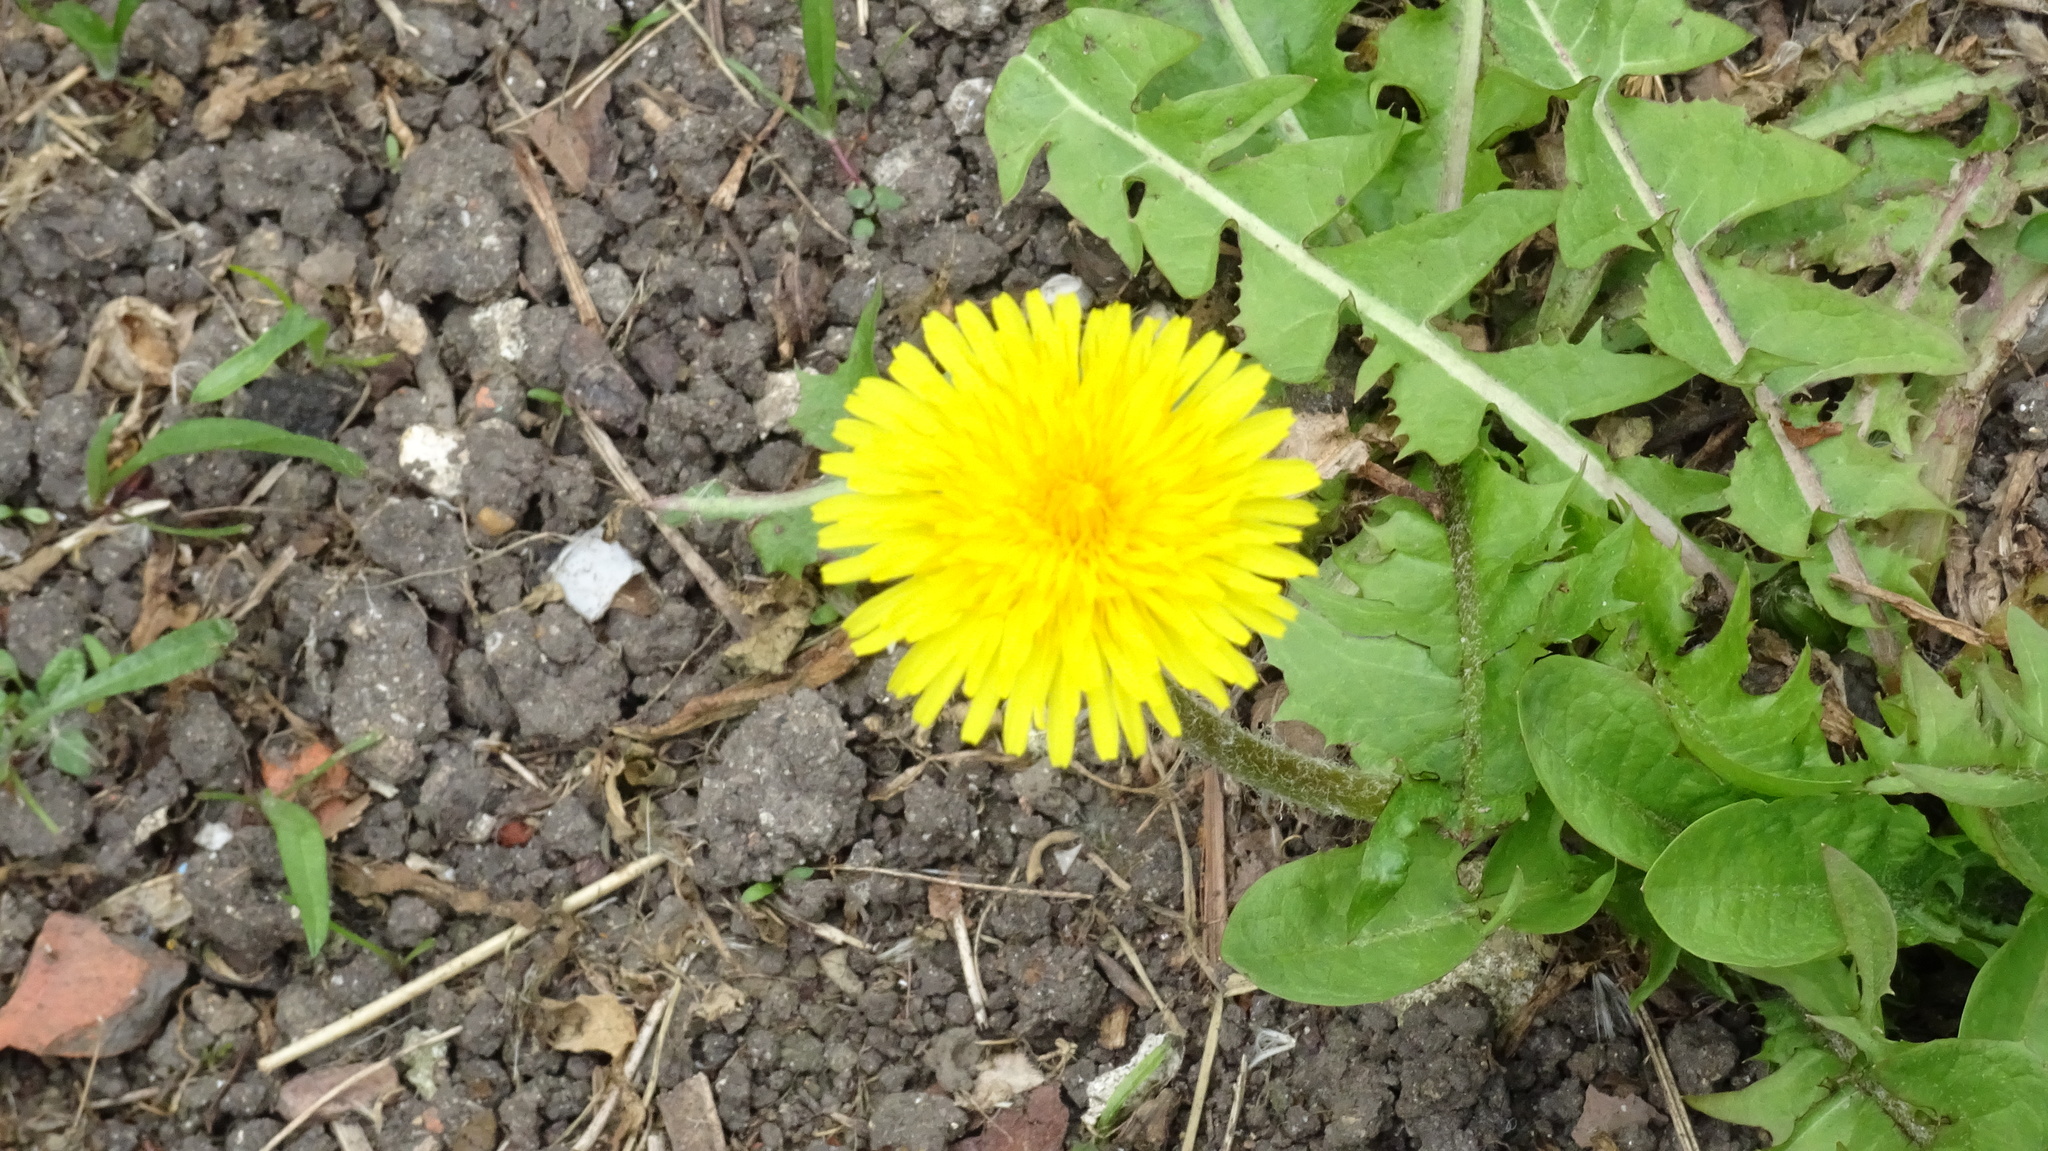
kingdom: Plantae
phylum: Tracheophyta
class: Magnoliopsida
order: Asterales
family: Asteraceae
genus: Taraxacum
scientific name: Taraxacum officinale
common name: Common dandelion
